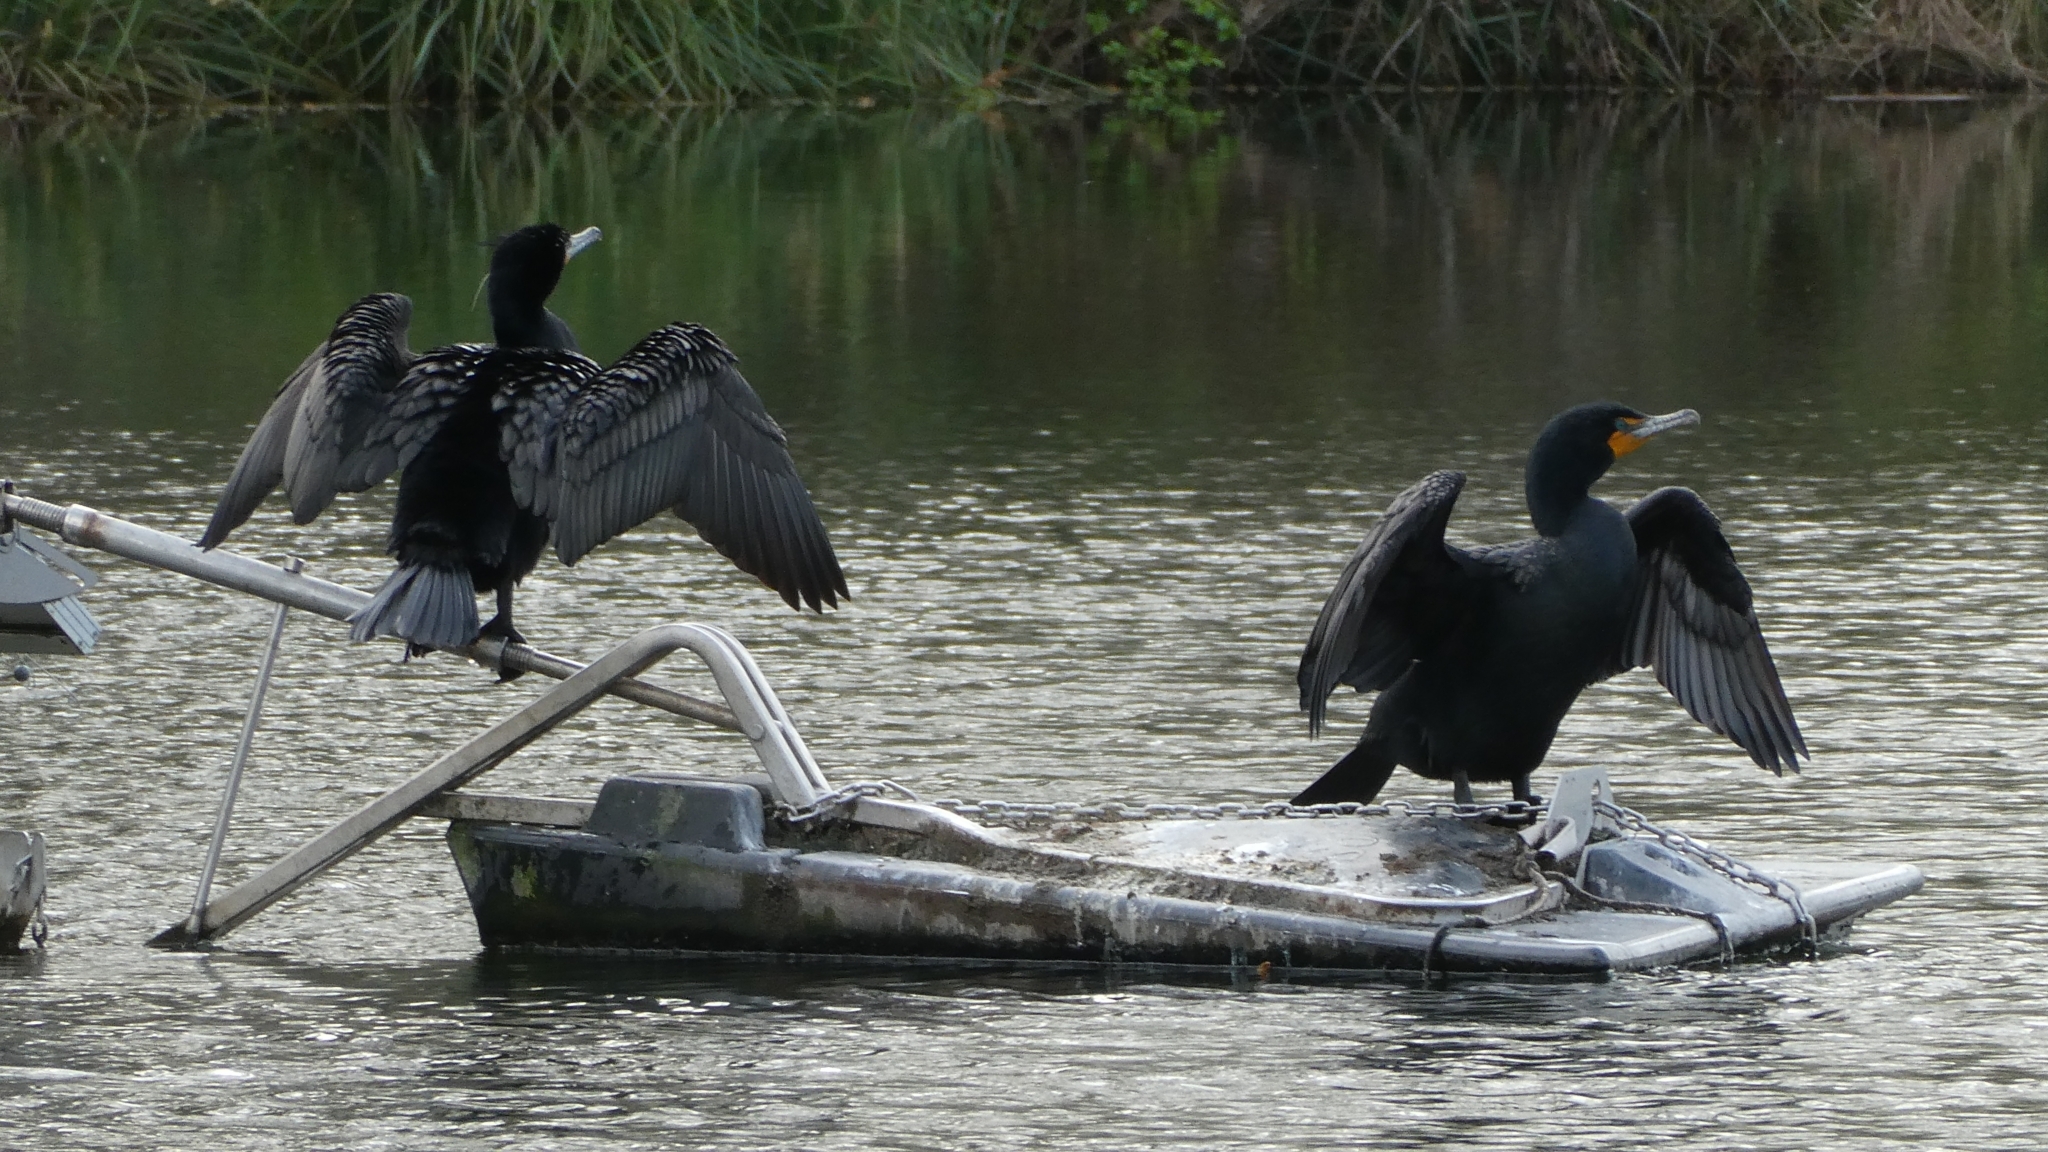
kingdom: Animalia
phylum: Chordata
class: Aves
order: Suliformes
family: Phalacrocoracidae
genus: Phalacrocorax
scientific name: Phalacrocorax auritus
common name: Double-crested cormorant
